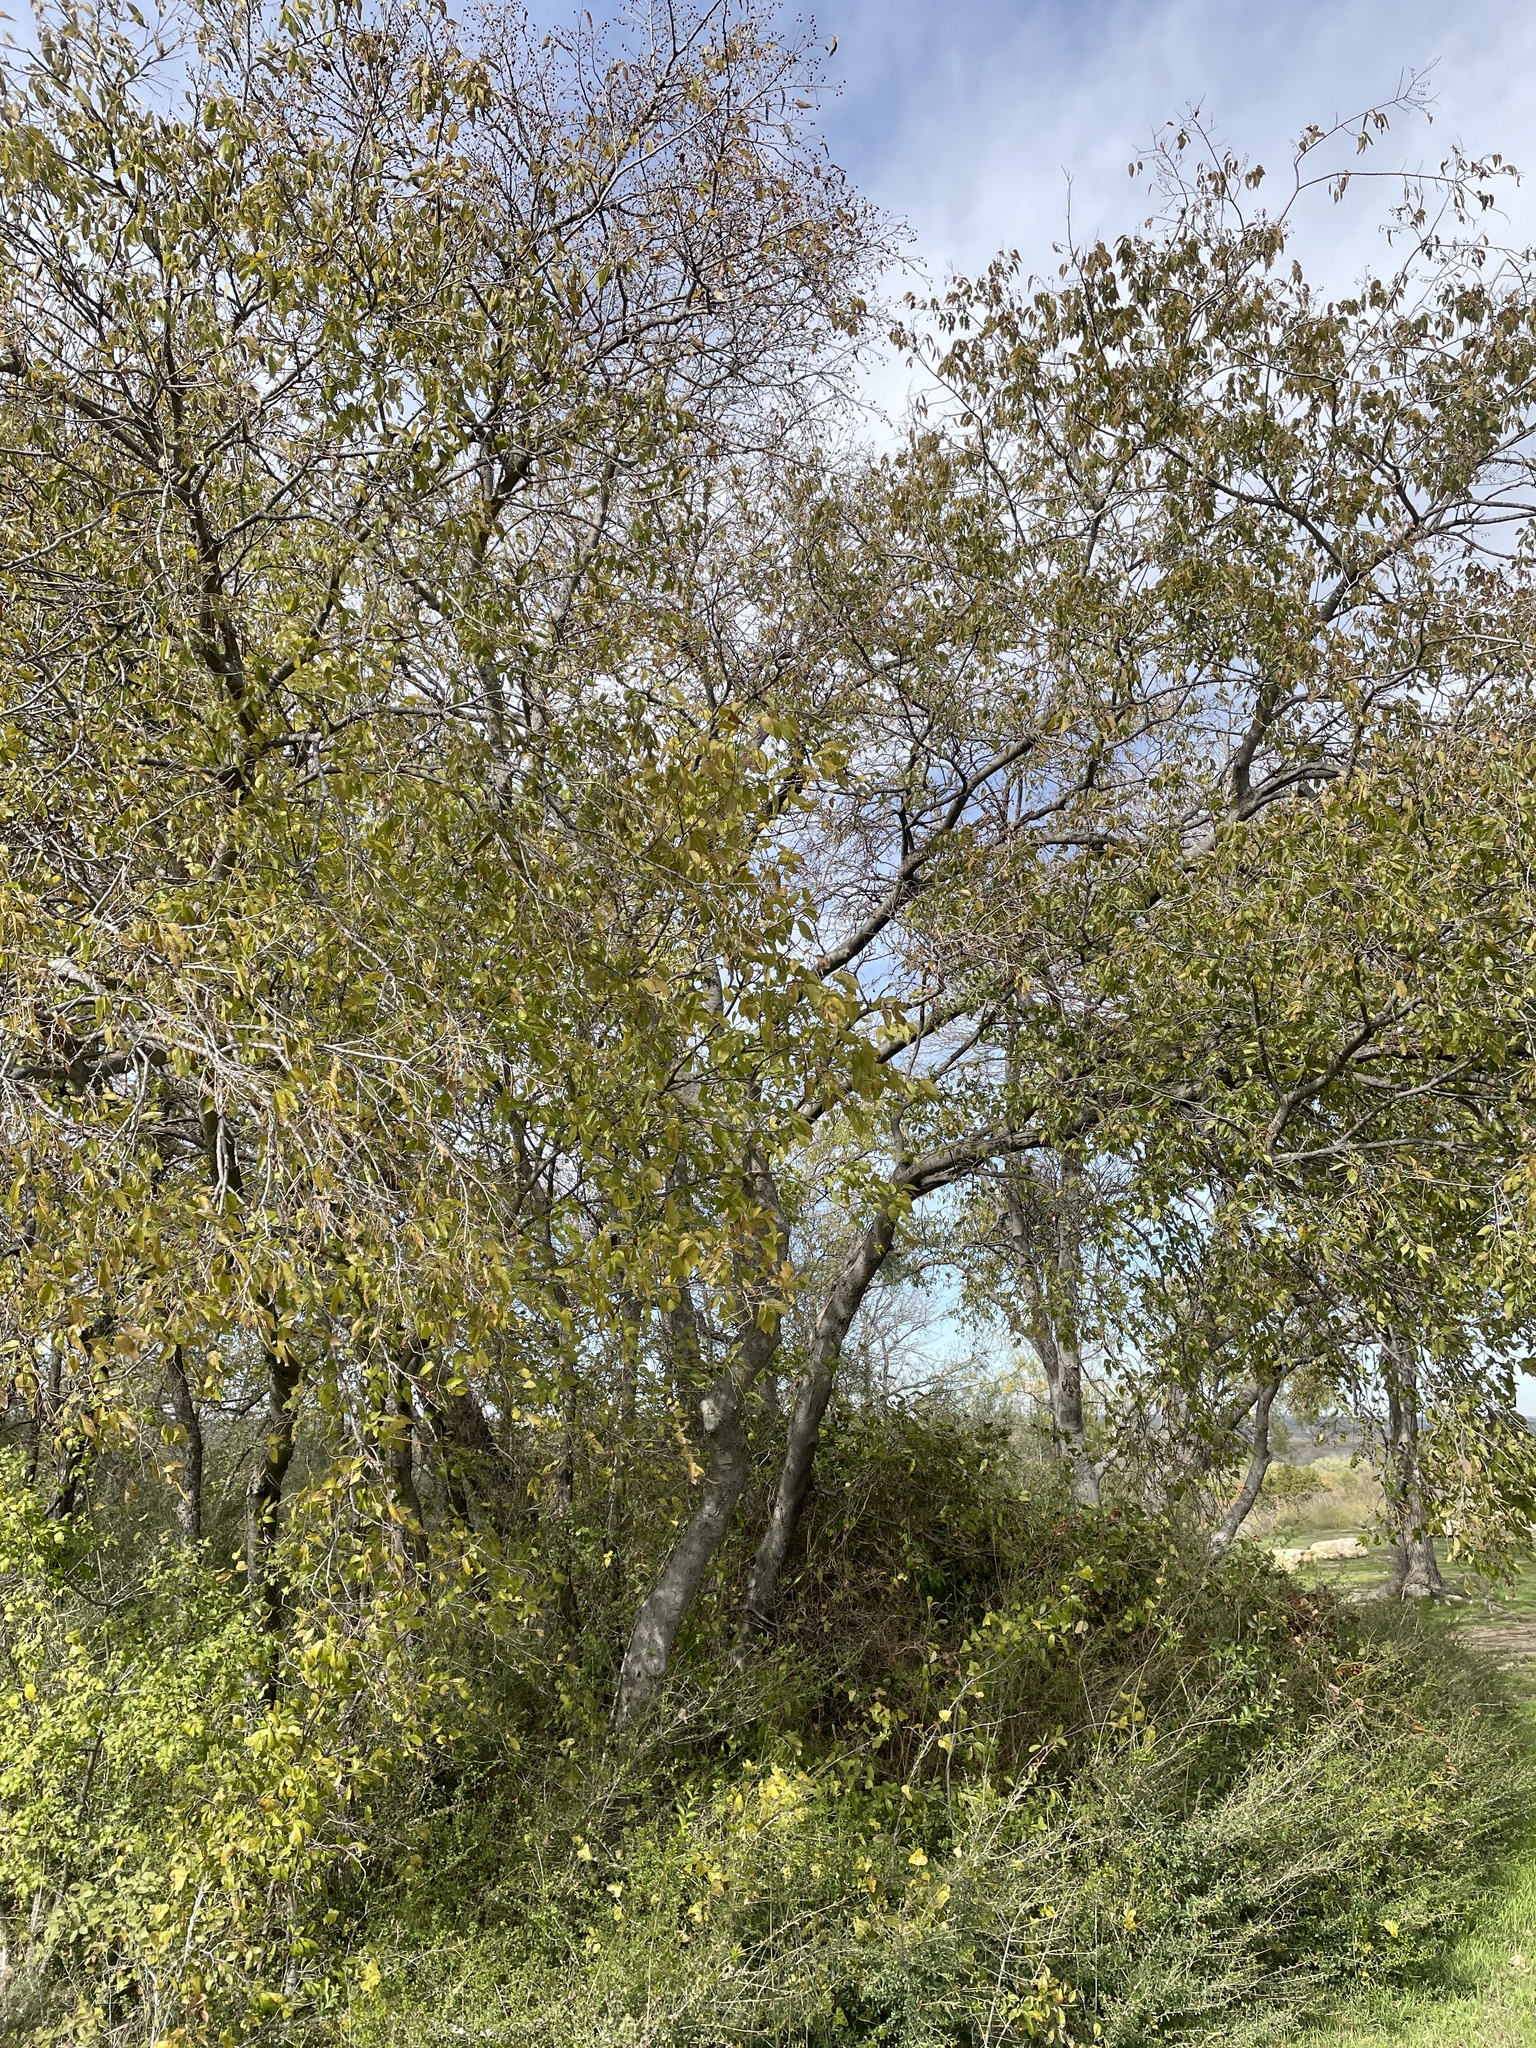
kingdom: Plantae
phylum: Tracheophyta
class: Magnoliopsida
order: Rosales
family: Cannabaceae
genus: Celtis
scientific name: Celtis laevigata
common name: Sugarberry
